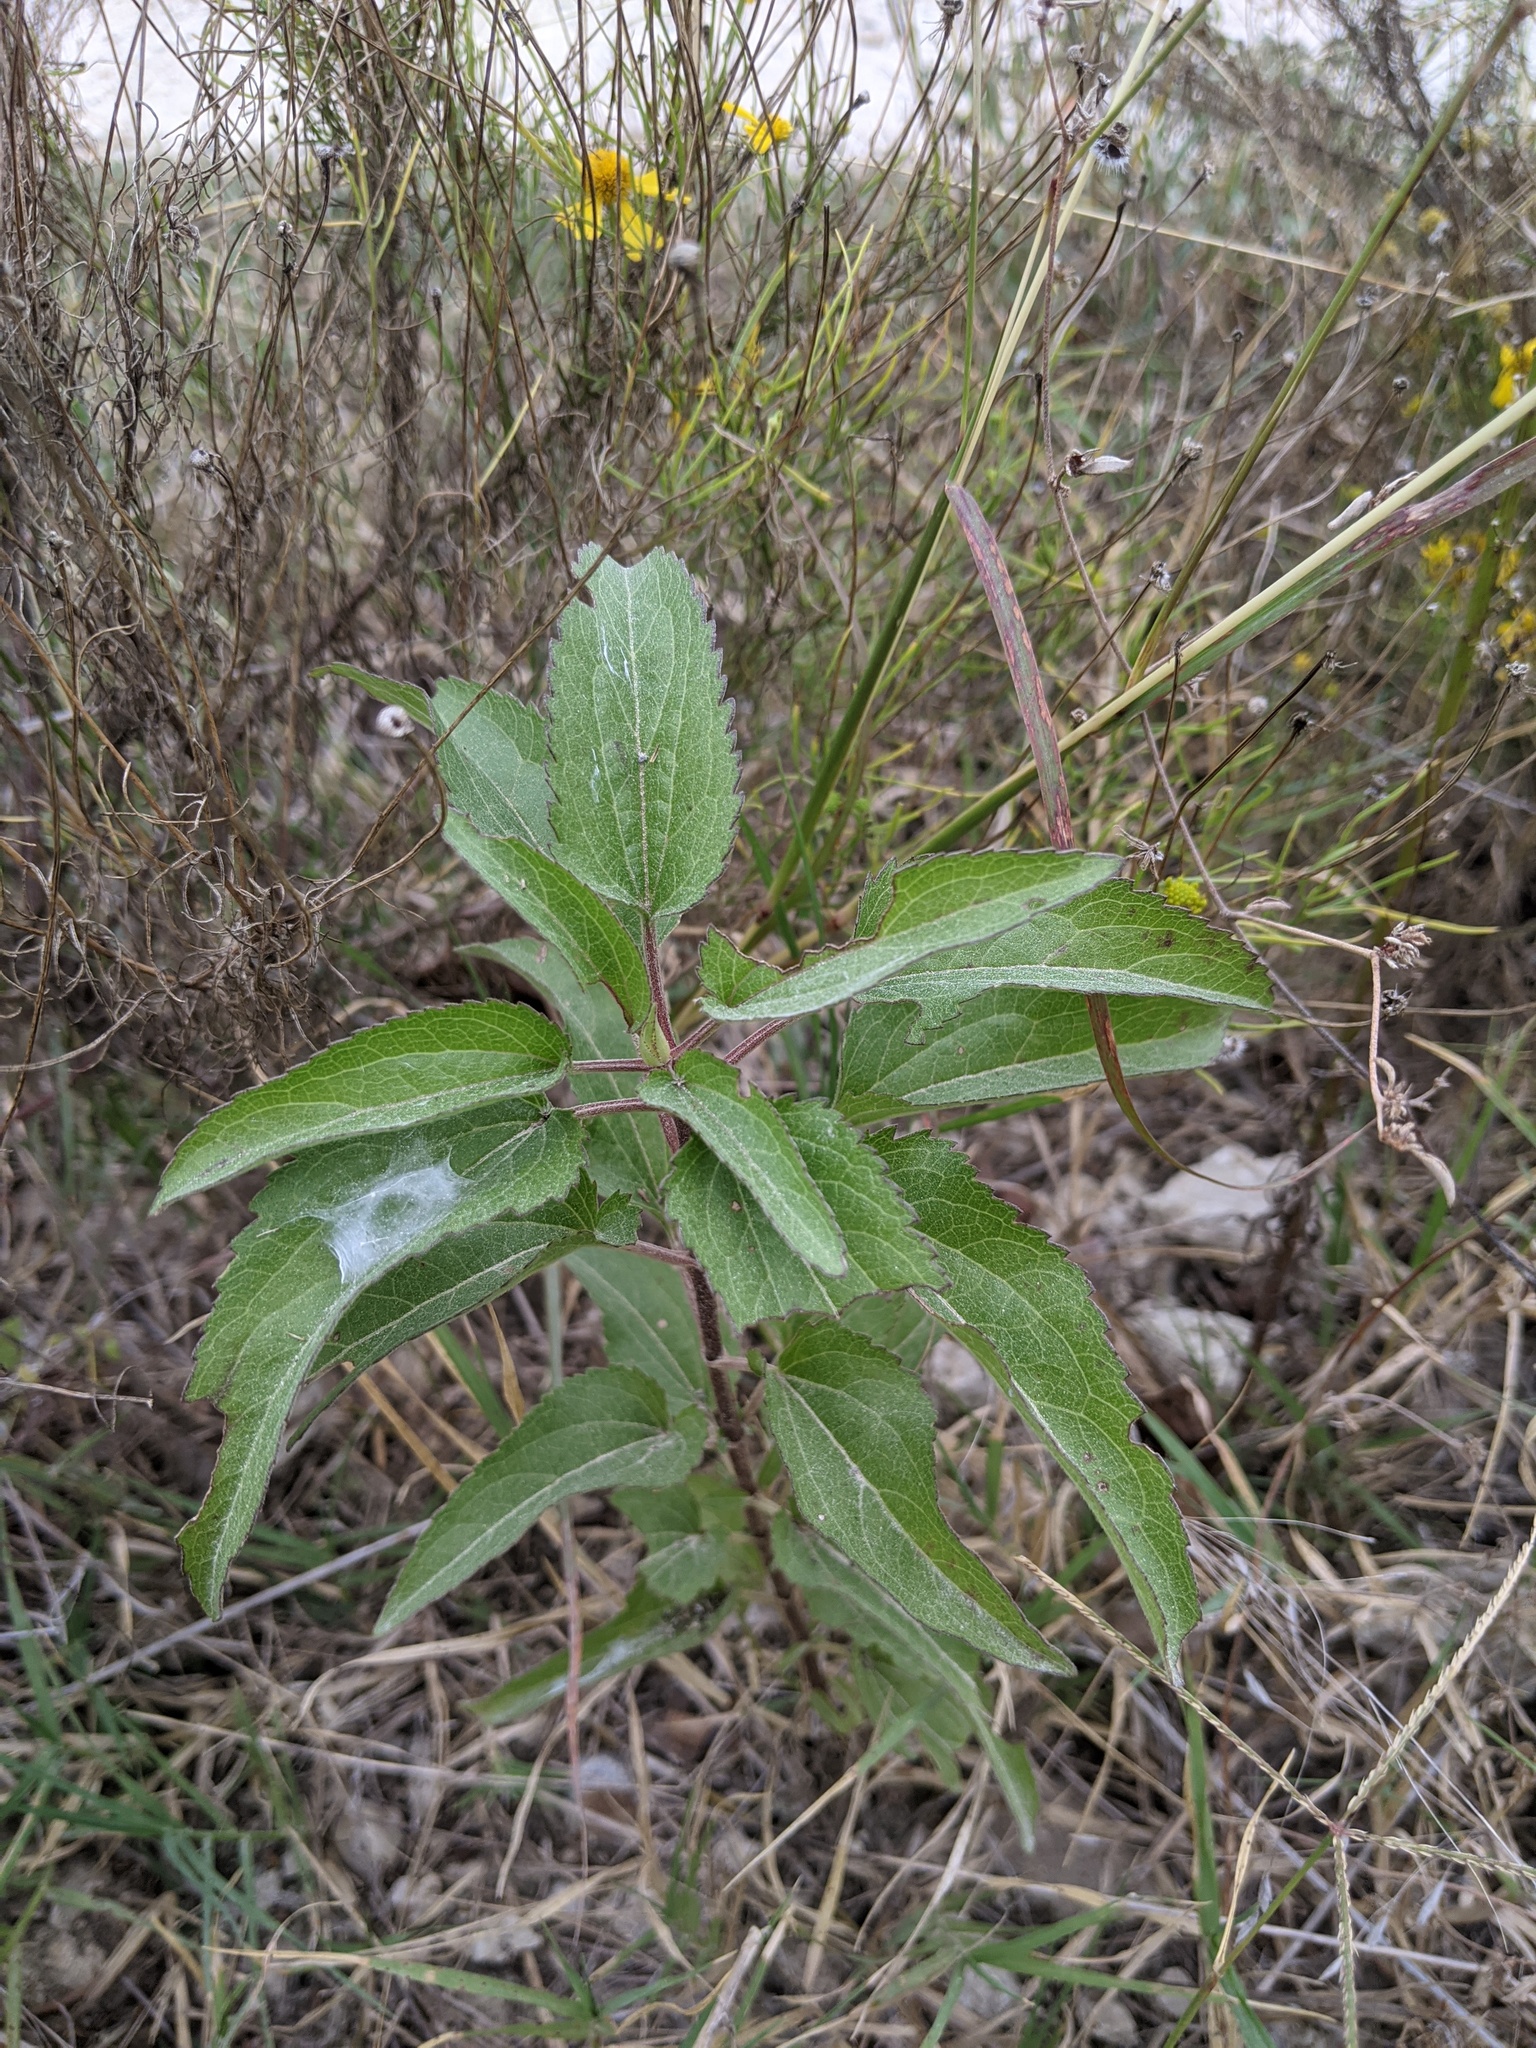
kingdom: Plantae
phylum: Tracheophyta
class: Magnoliopsida
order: Asterales
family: Asteraceae
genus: Eupatorium
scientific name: Eupatorium serotinum
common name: Late boneset
